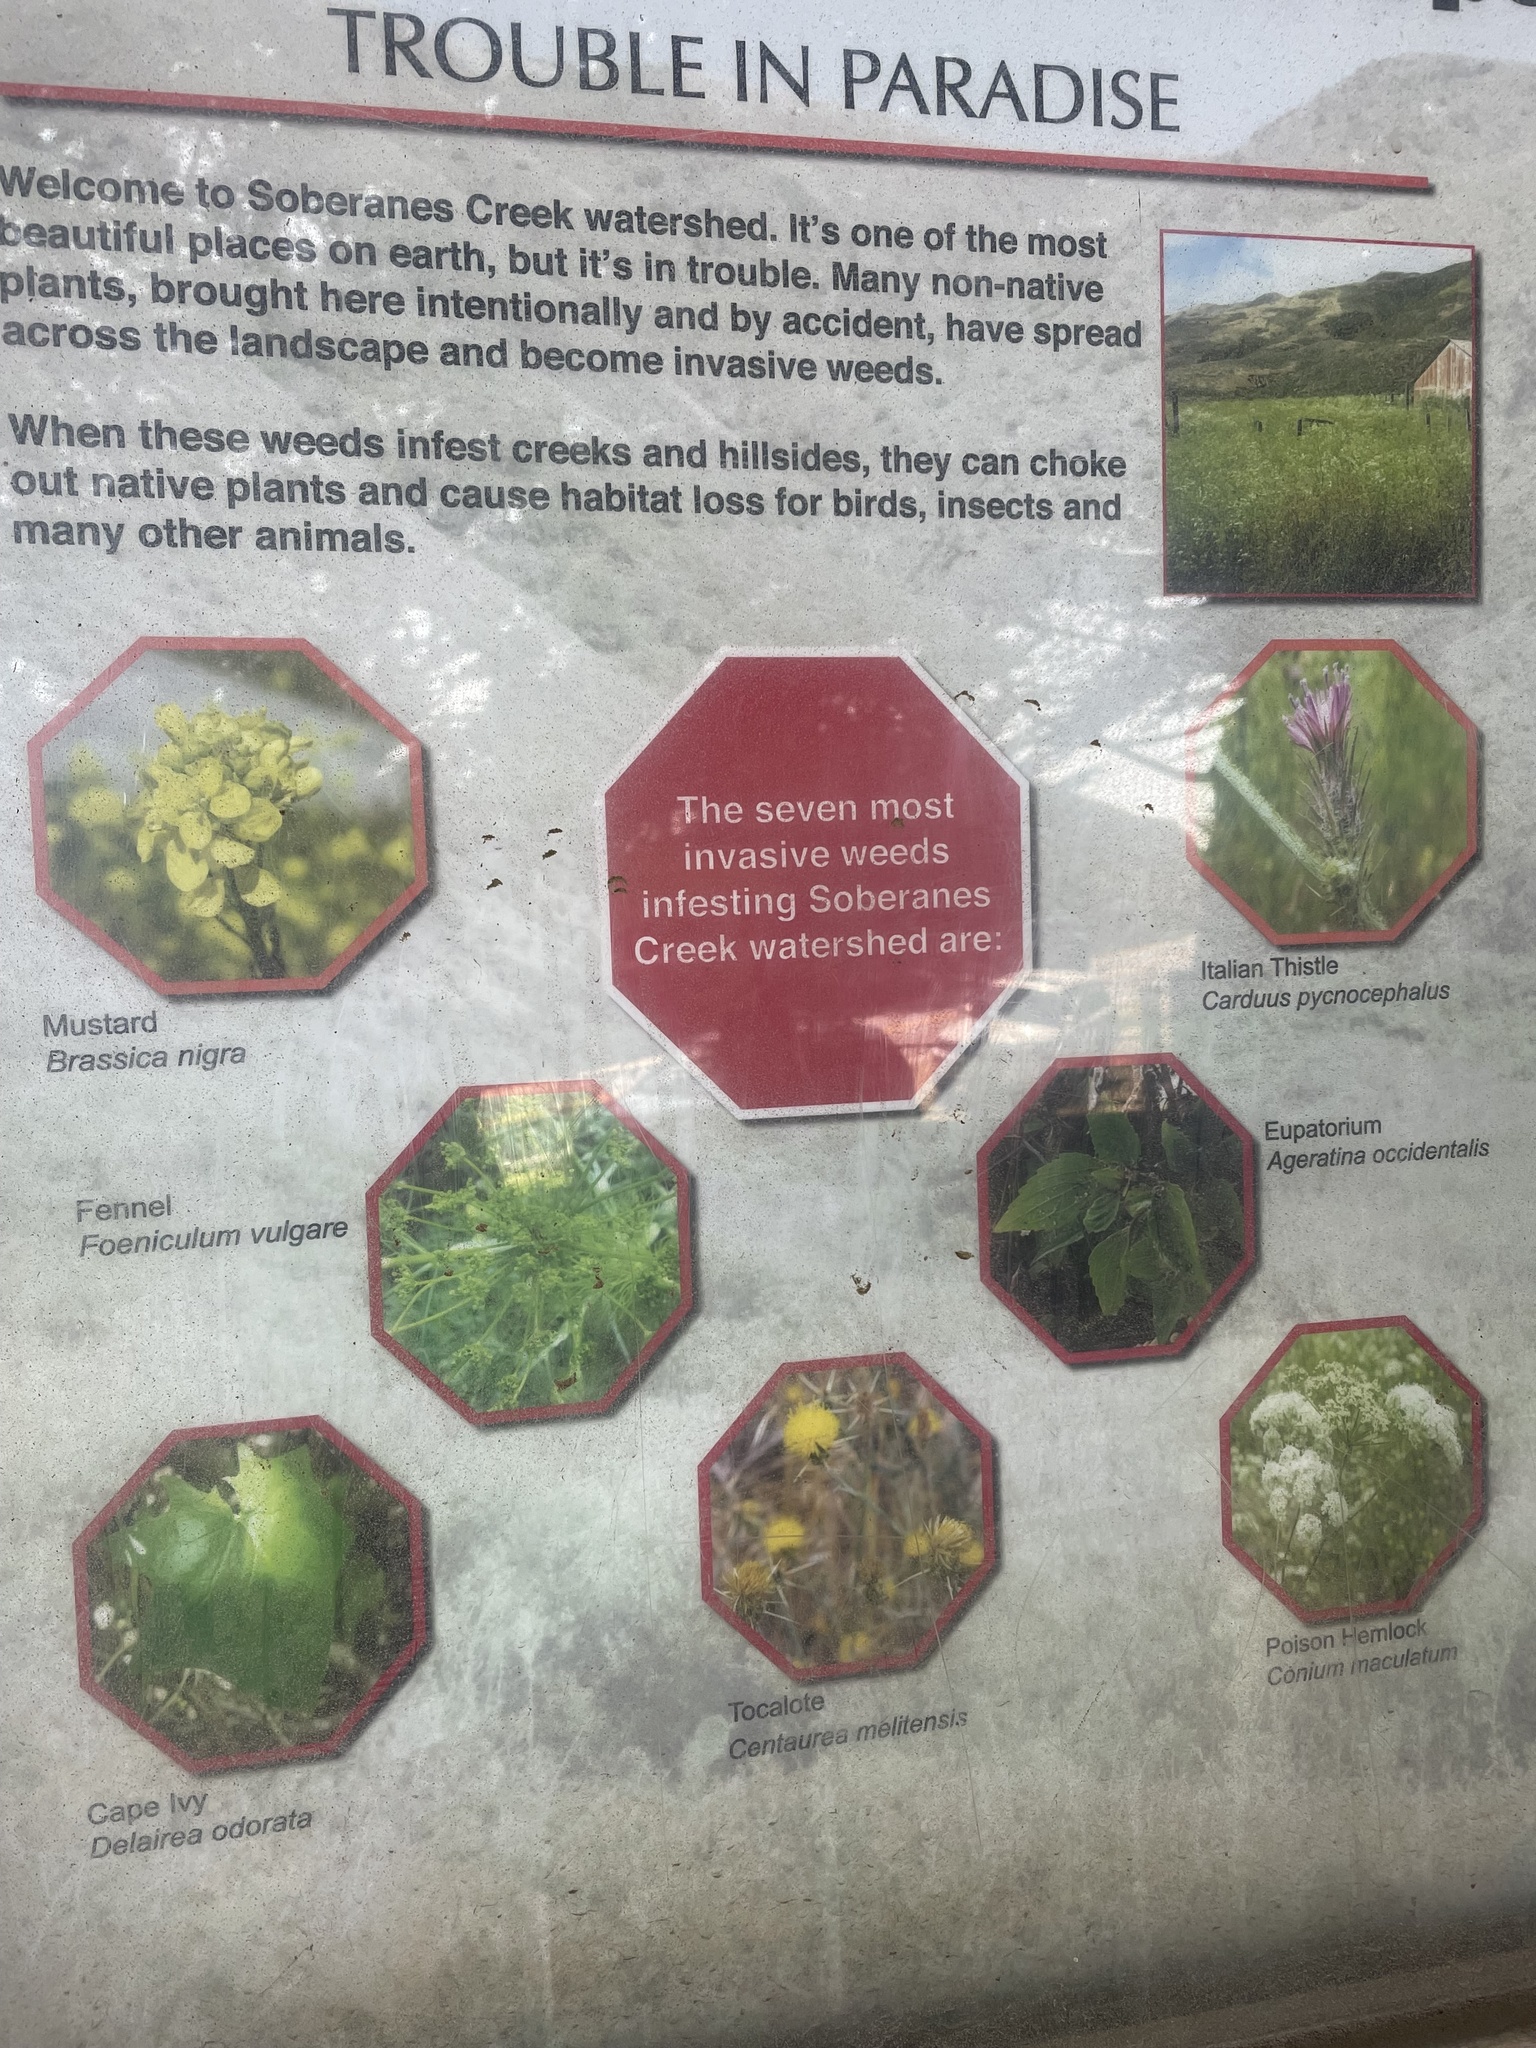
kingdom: Plantae
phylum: Tracheophyta
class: Magnoliopsida
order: Brassicales
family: Brassicaceae
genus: Hirschfeldia
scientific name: Hirschfeldia incana
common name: Hoary mustard
